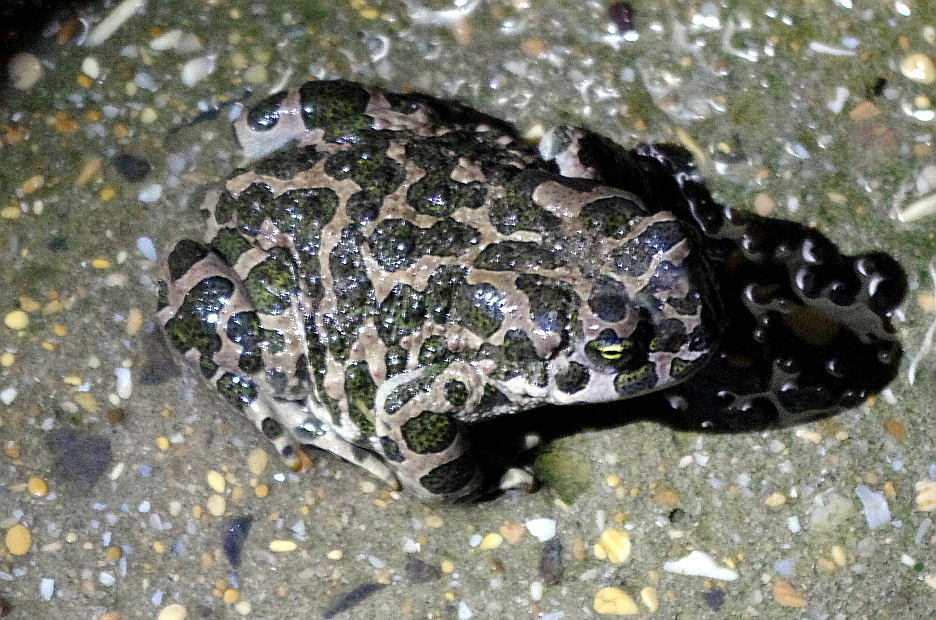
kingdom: Animalia
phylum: Chordata
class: Amphibia
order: Anura
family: Bufonidae
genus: Bufotes
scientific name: Bufotes viridis
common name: European green toad
